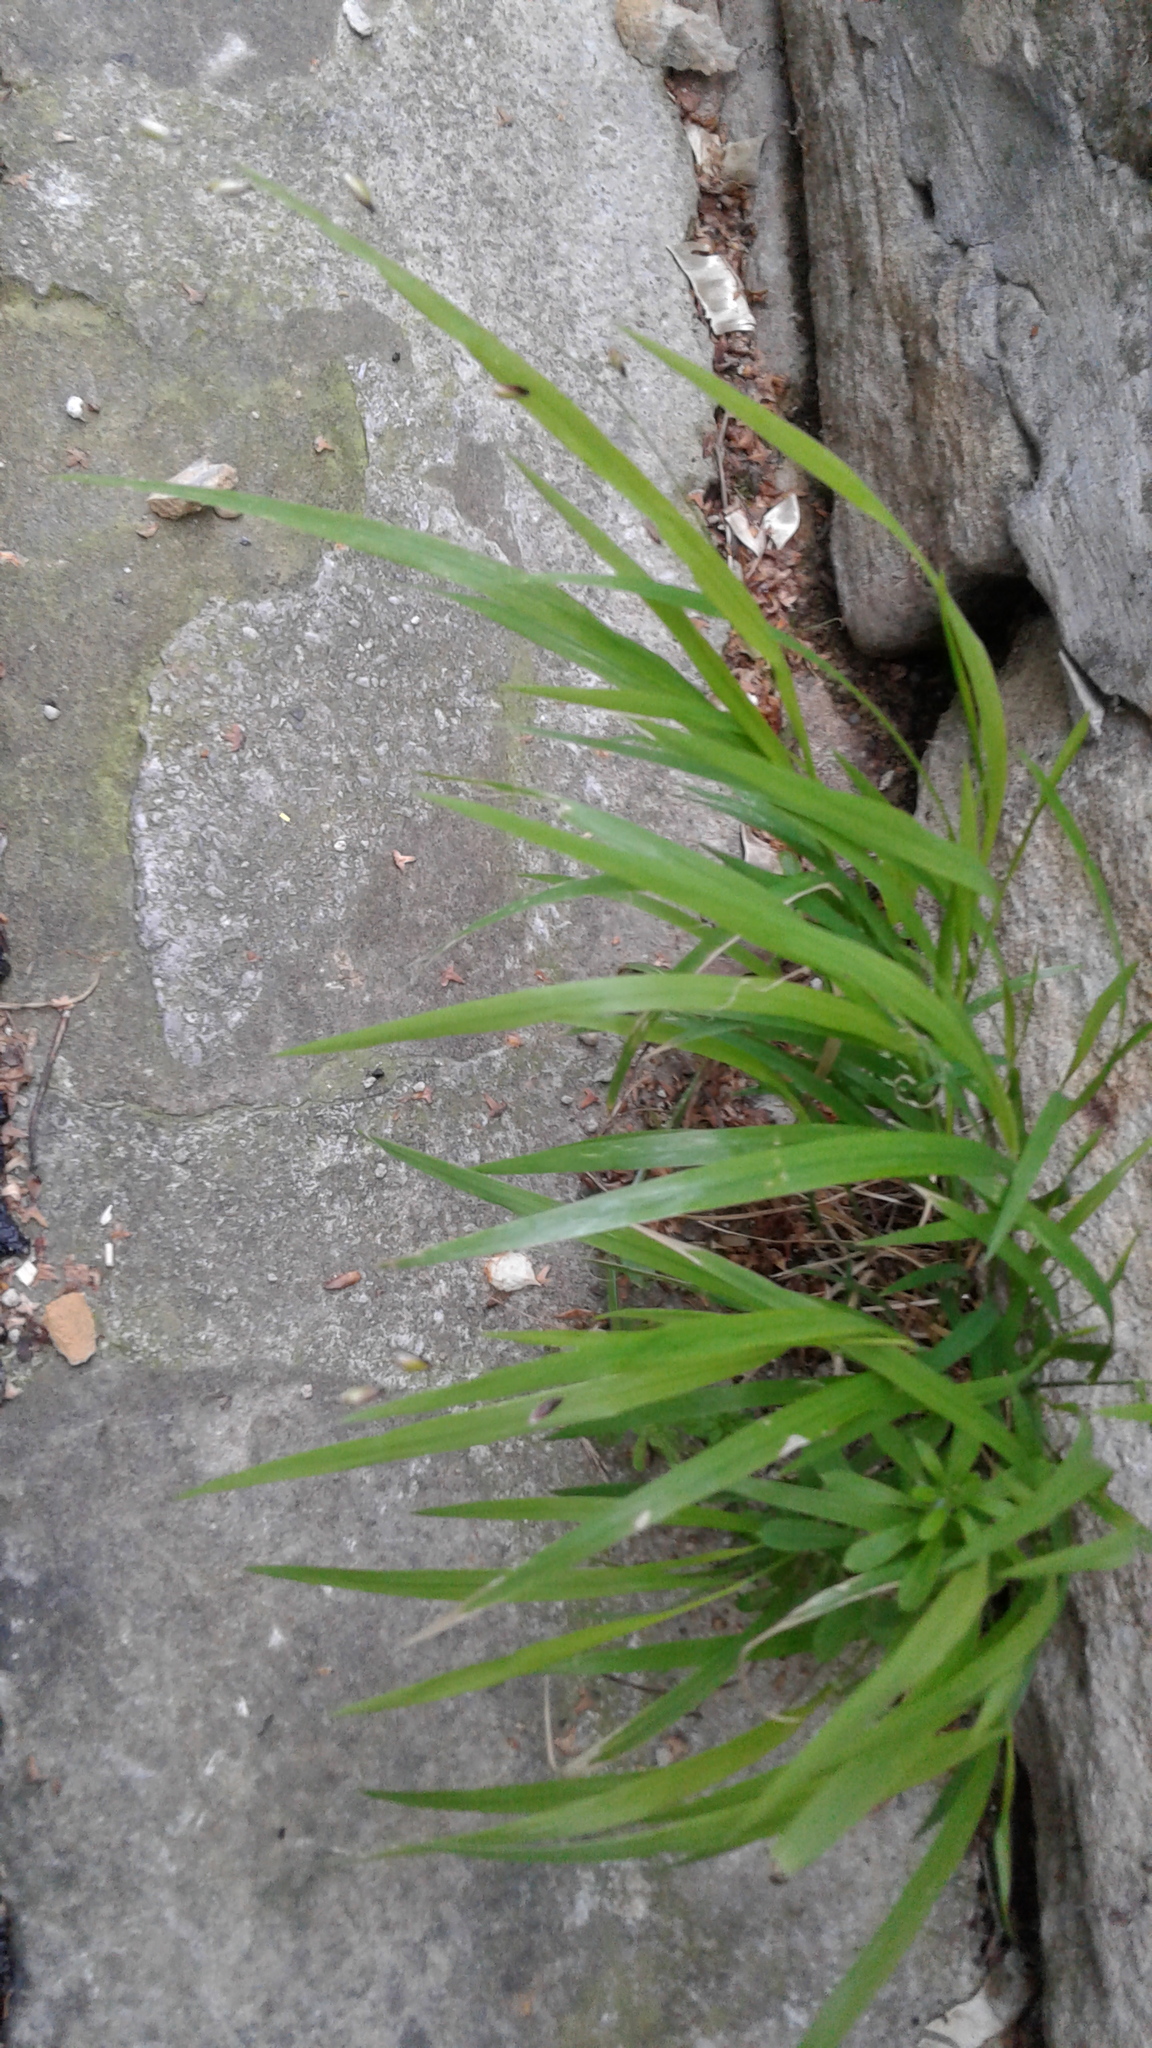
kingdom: Plantae
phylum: Tracheophyta
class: Liliopsida
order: Poales
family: Poaceae
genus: Melica
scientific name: Melica uniflora
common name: Wood melick
